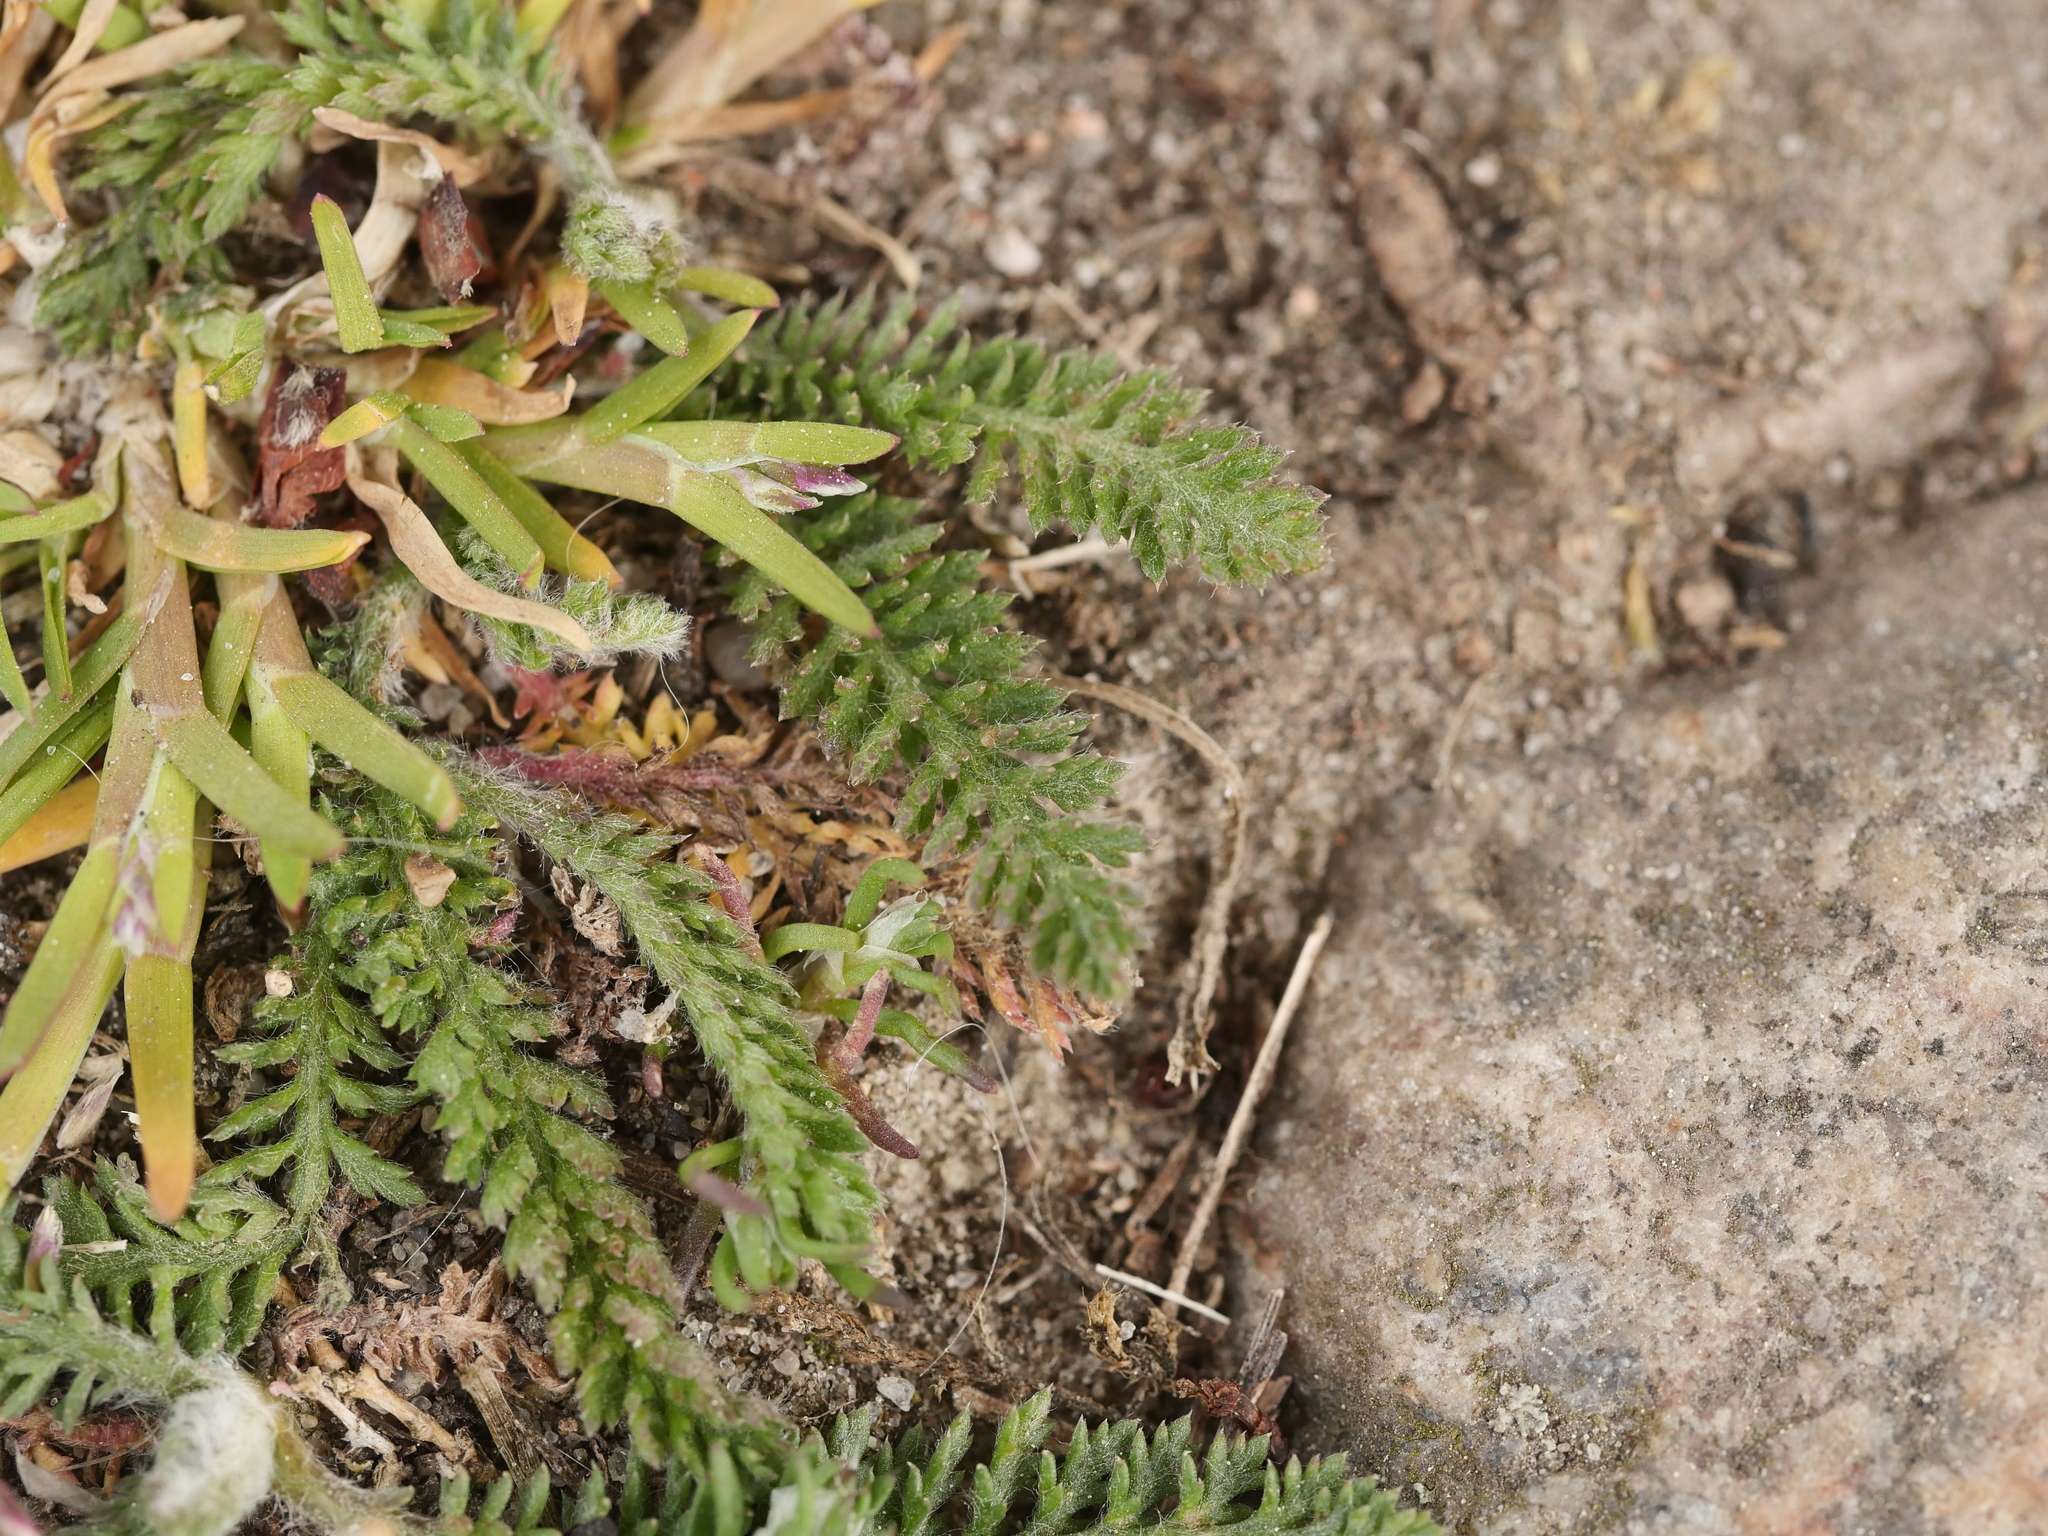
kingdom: Plantae
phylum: Tracheophyta
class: Magnoliopsida
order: Asterales
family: Asteraceae
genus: Achillea
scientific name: Achillea millefolium
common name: Yarrow
